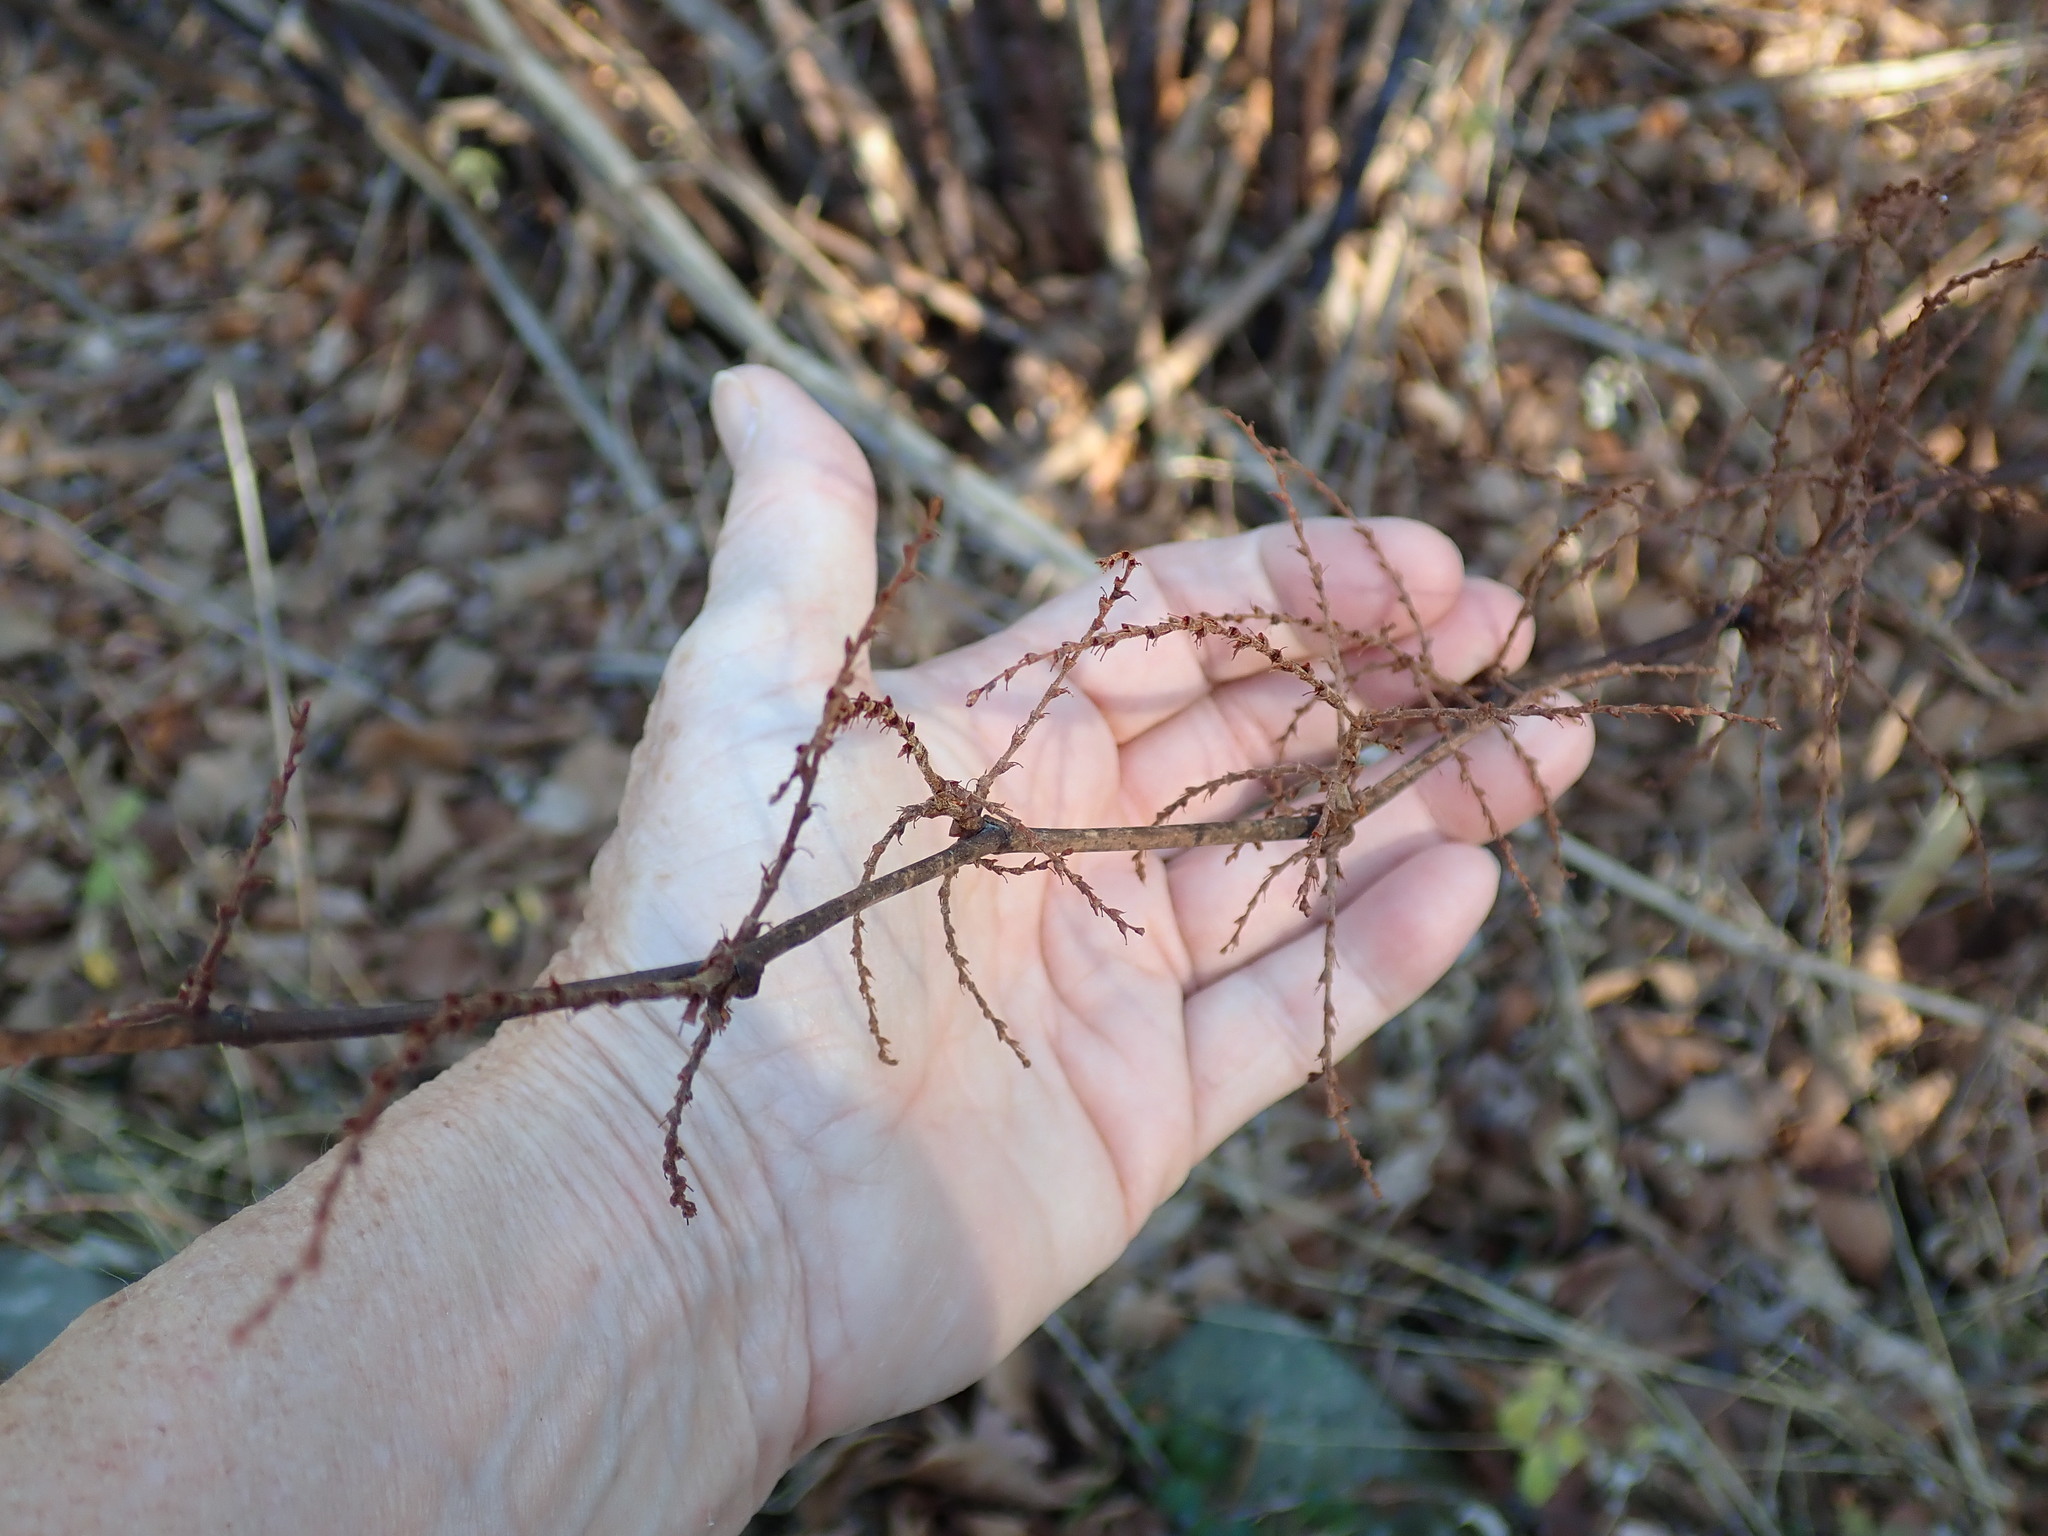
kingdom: Plantae
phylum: Tracheophyta
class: Magnoliopsida
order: Caryophyllales
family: Polygonaceae
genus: Reynoutria
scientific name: Reynoutria
